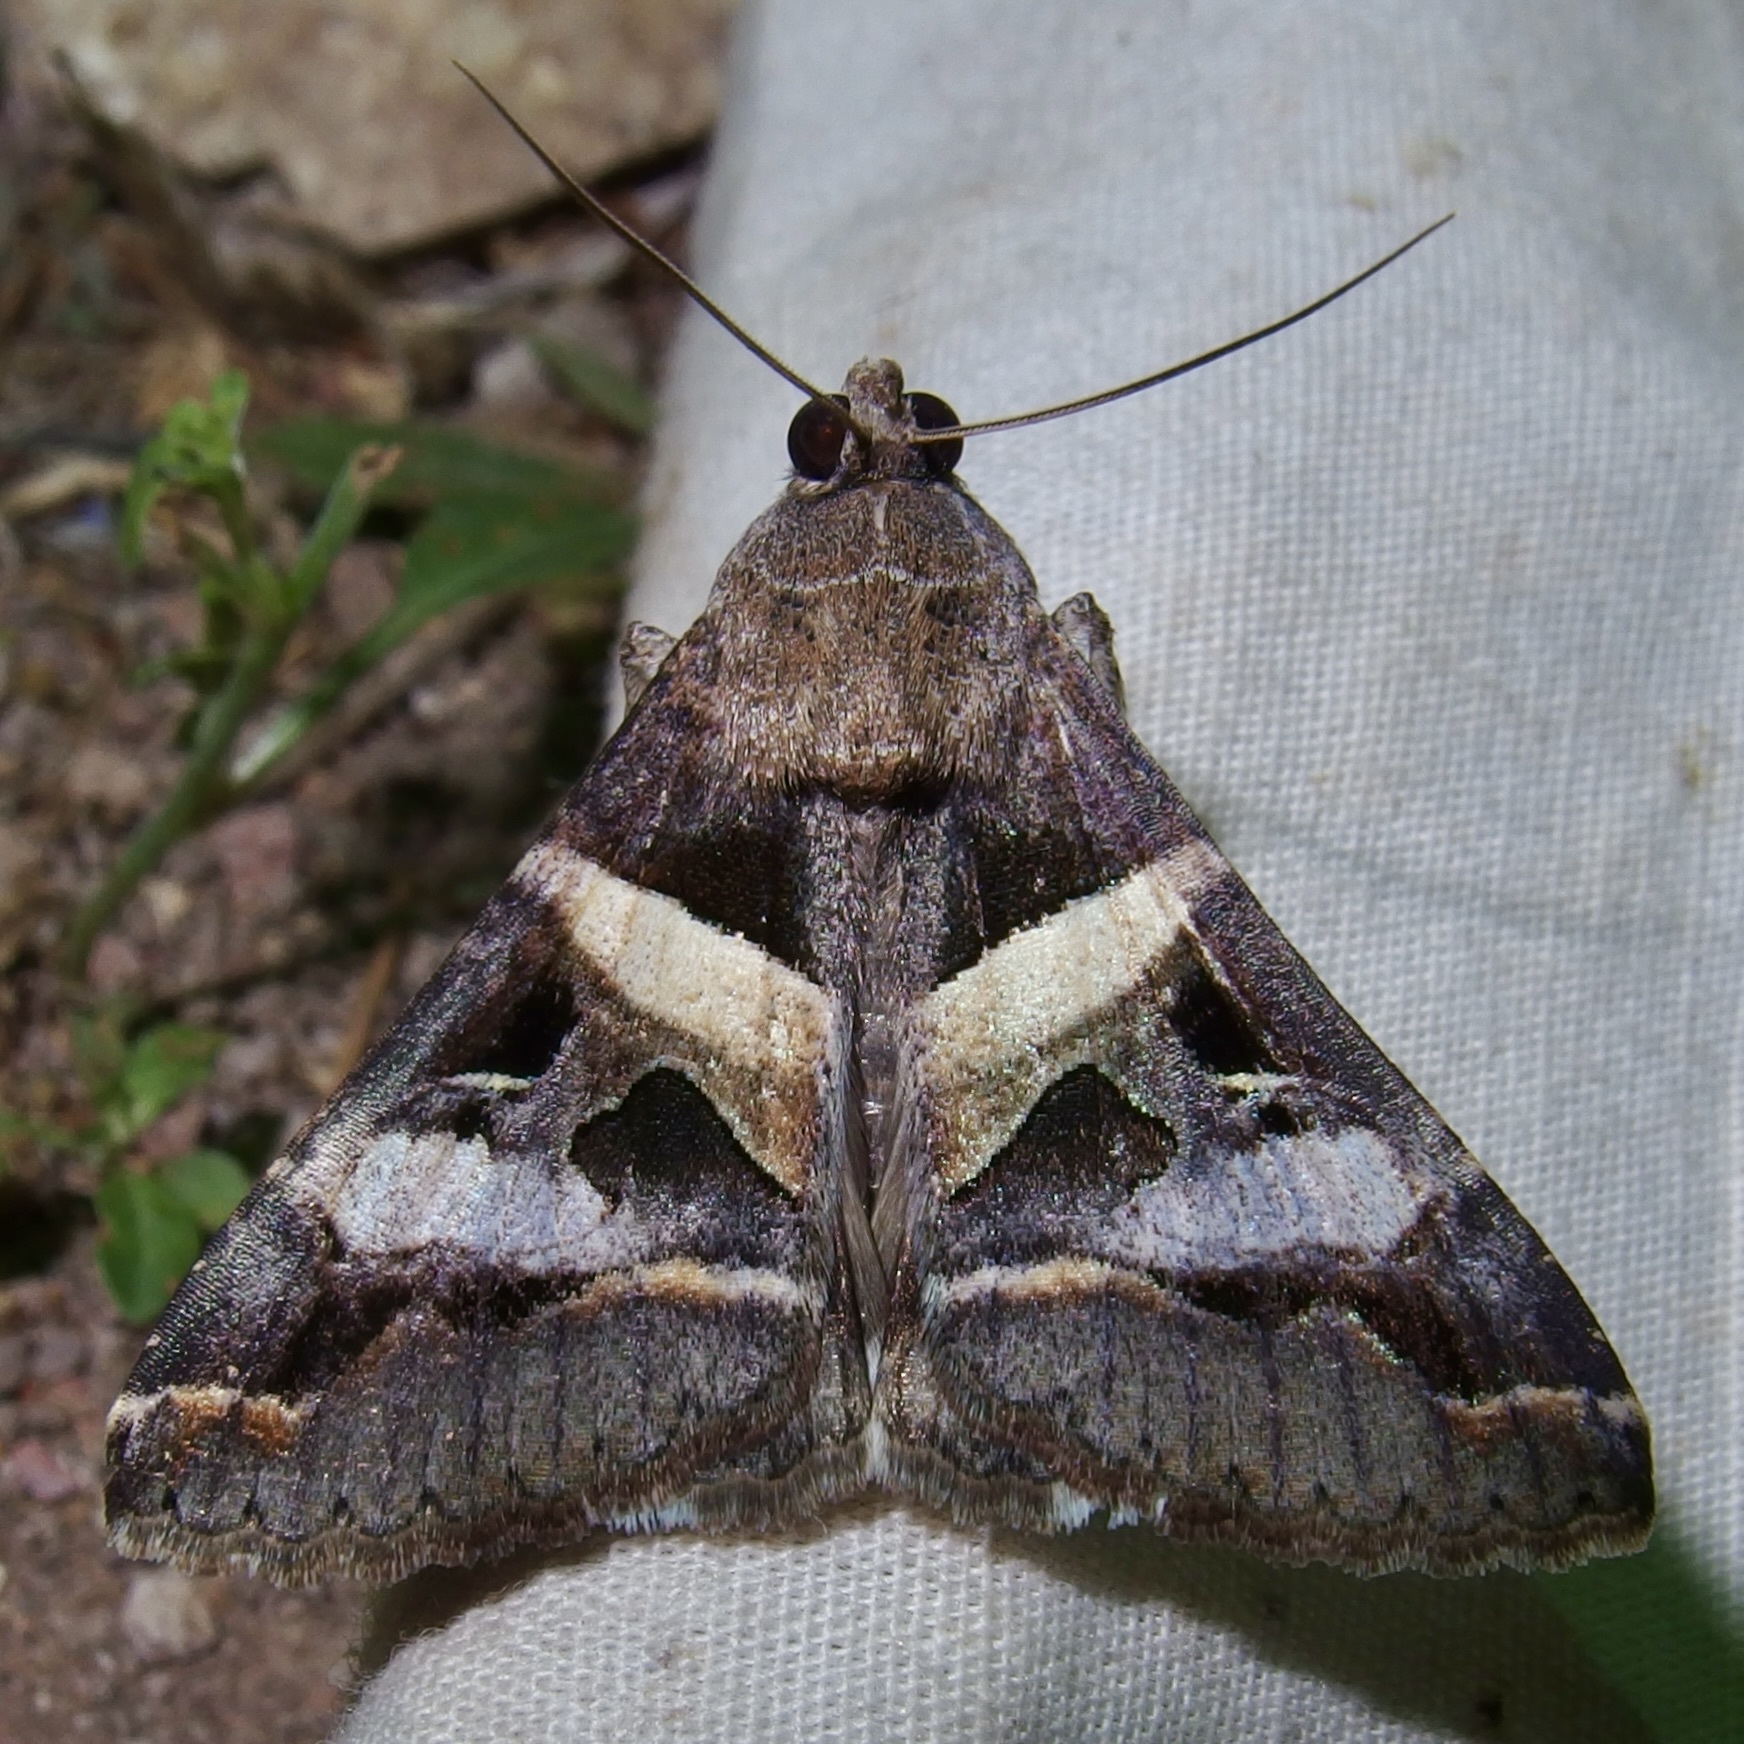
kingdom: Animalia
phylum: Arthropoda
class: Insecta
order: Lepidoptera
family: Erebidae
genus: Melipotis
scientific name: Melipotis perpendicularis
